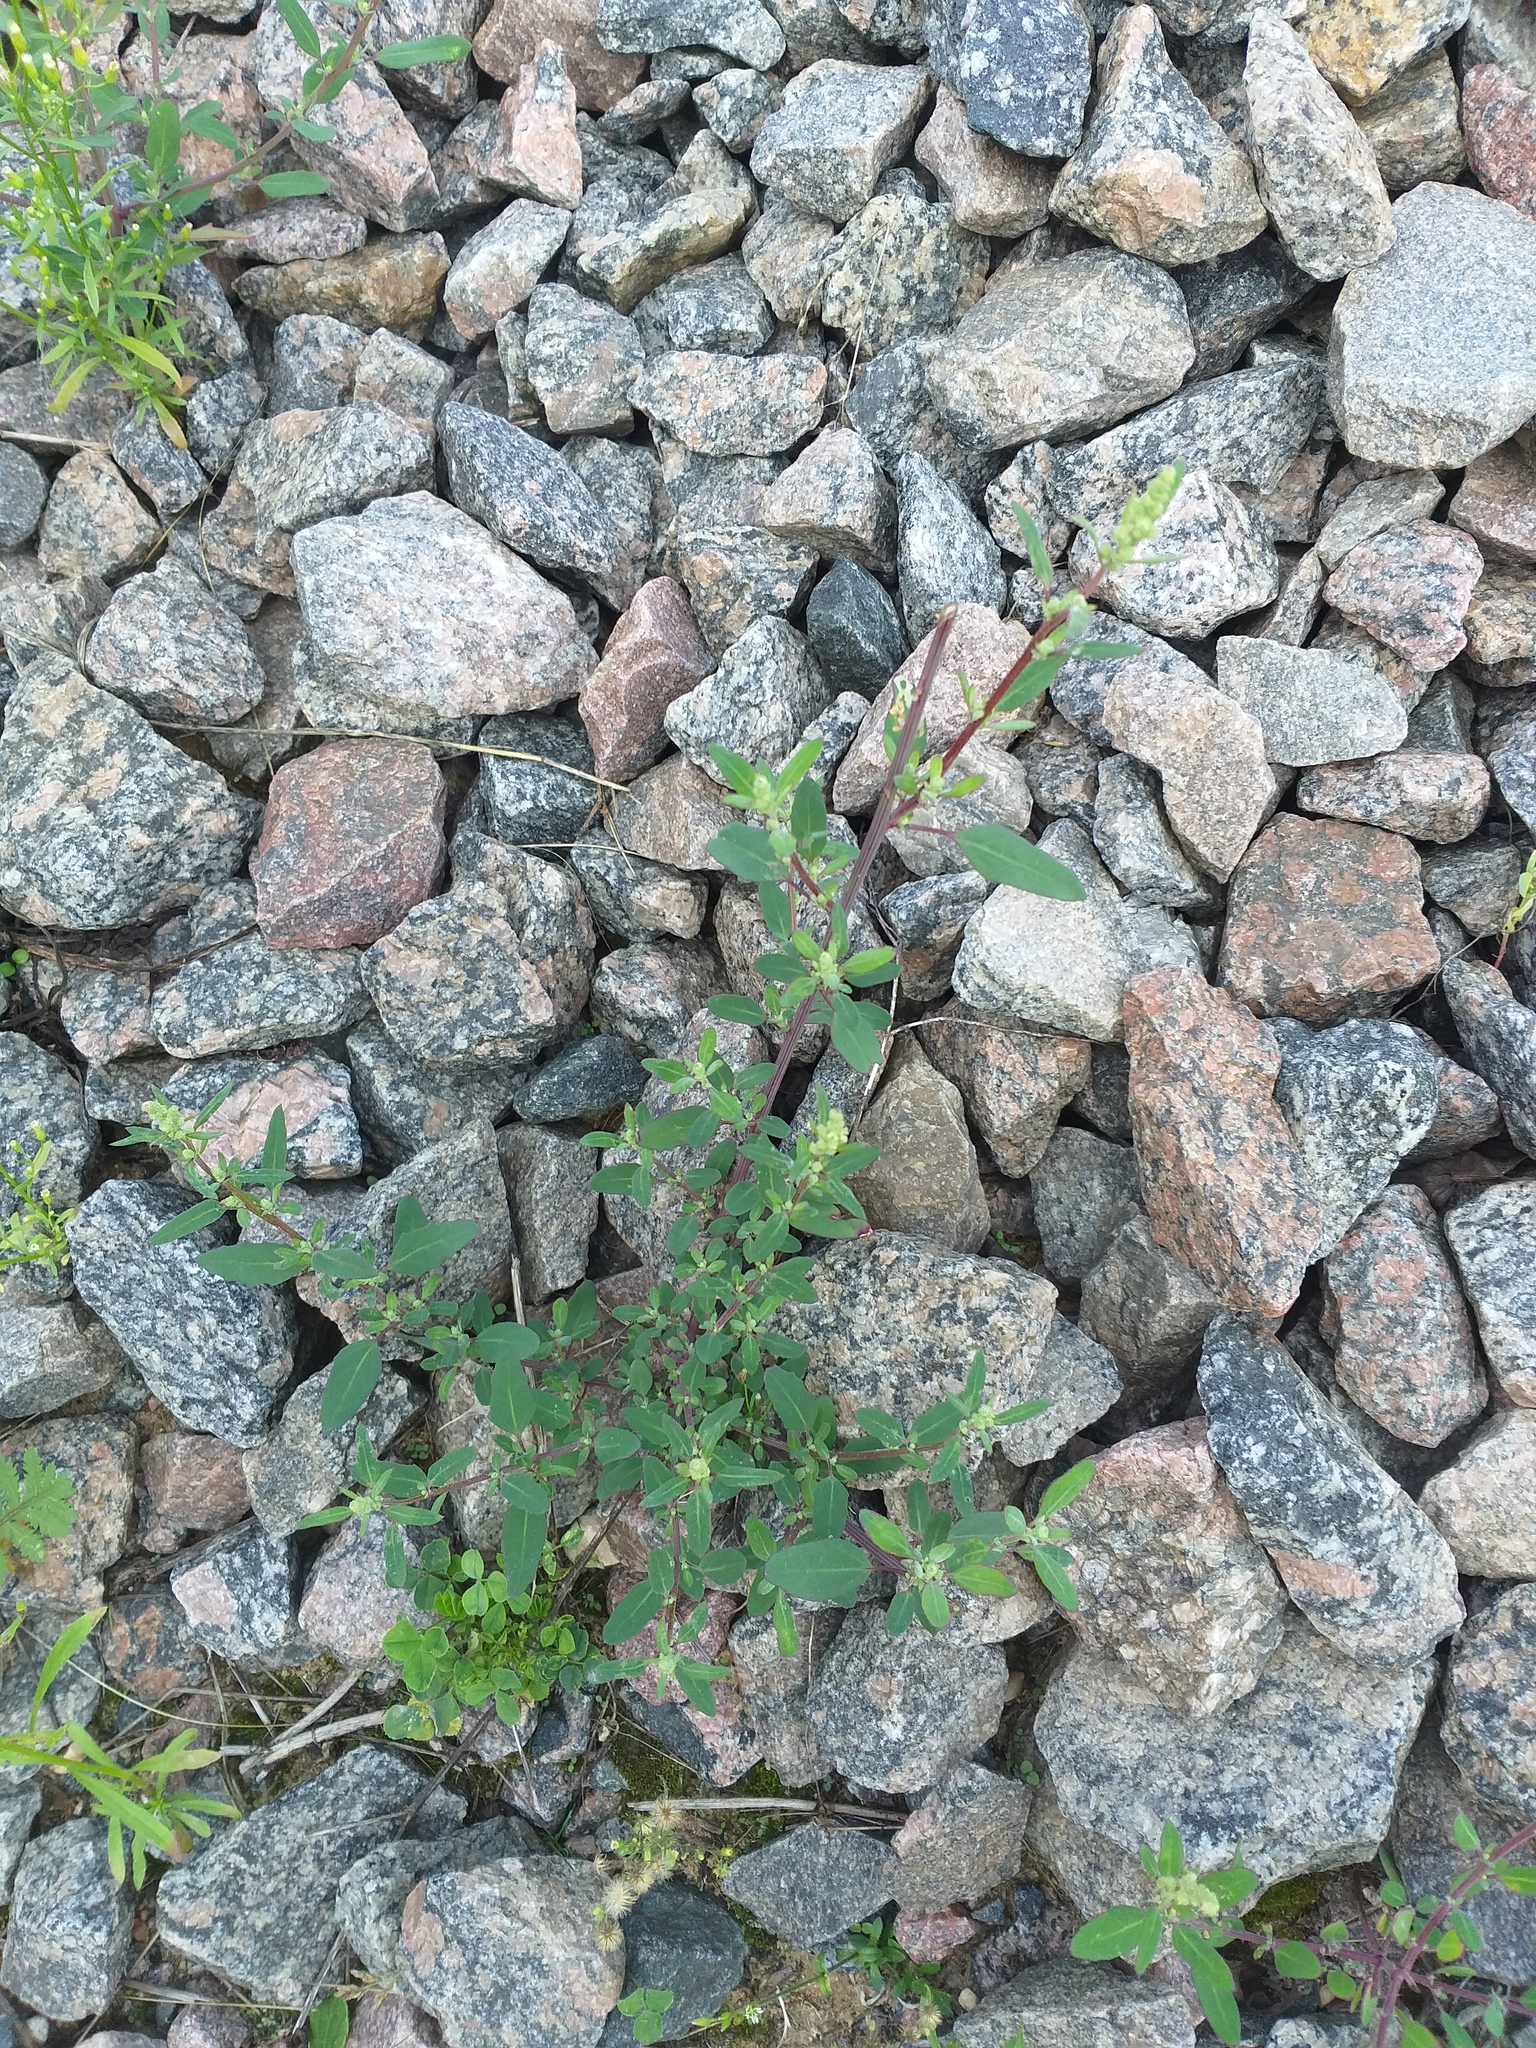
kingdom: Plantae
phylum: Tracheophyta
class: Magnoliopsida
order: Caryophyllales
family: Amaranthaceae
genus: Chenopodium
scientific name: Chenopodium betaceum
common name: Striped goosefoot
